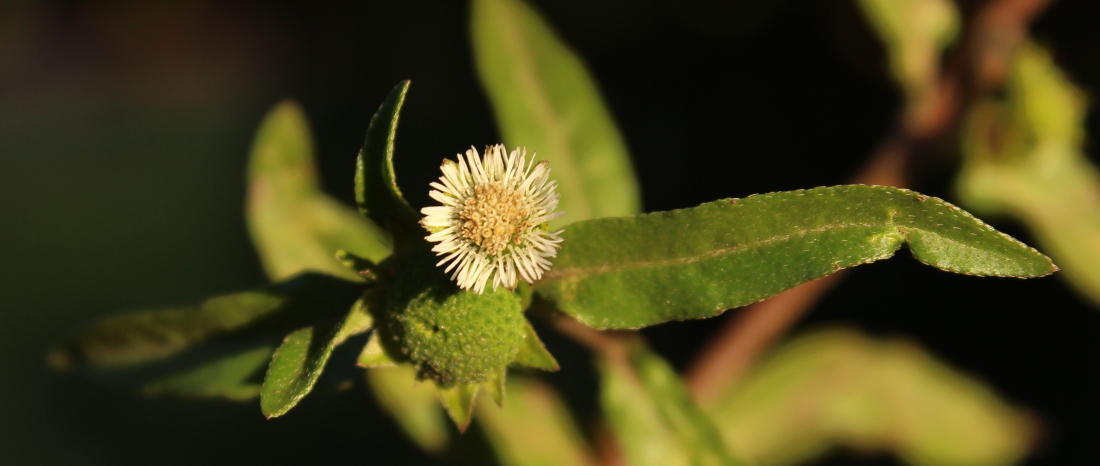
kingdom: Plantae
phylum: Tracheophyta
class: Magnoliopsida
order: Asterales
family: Asteraceae
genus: Eclipta
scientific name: Eclipta prostrata
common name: False daisy
